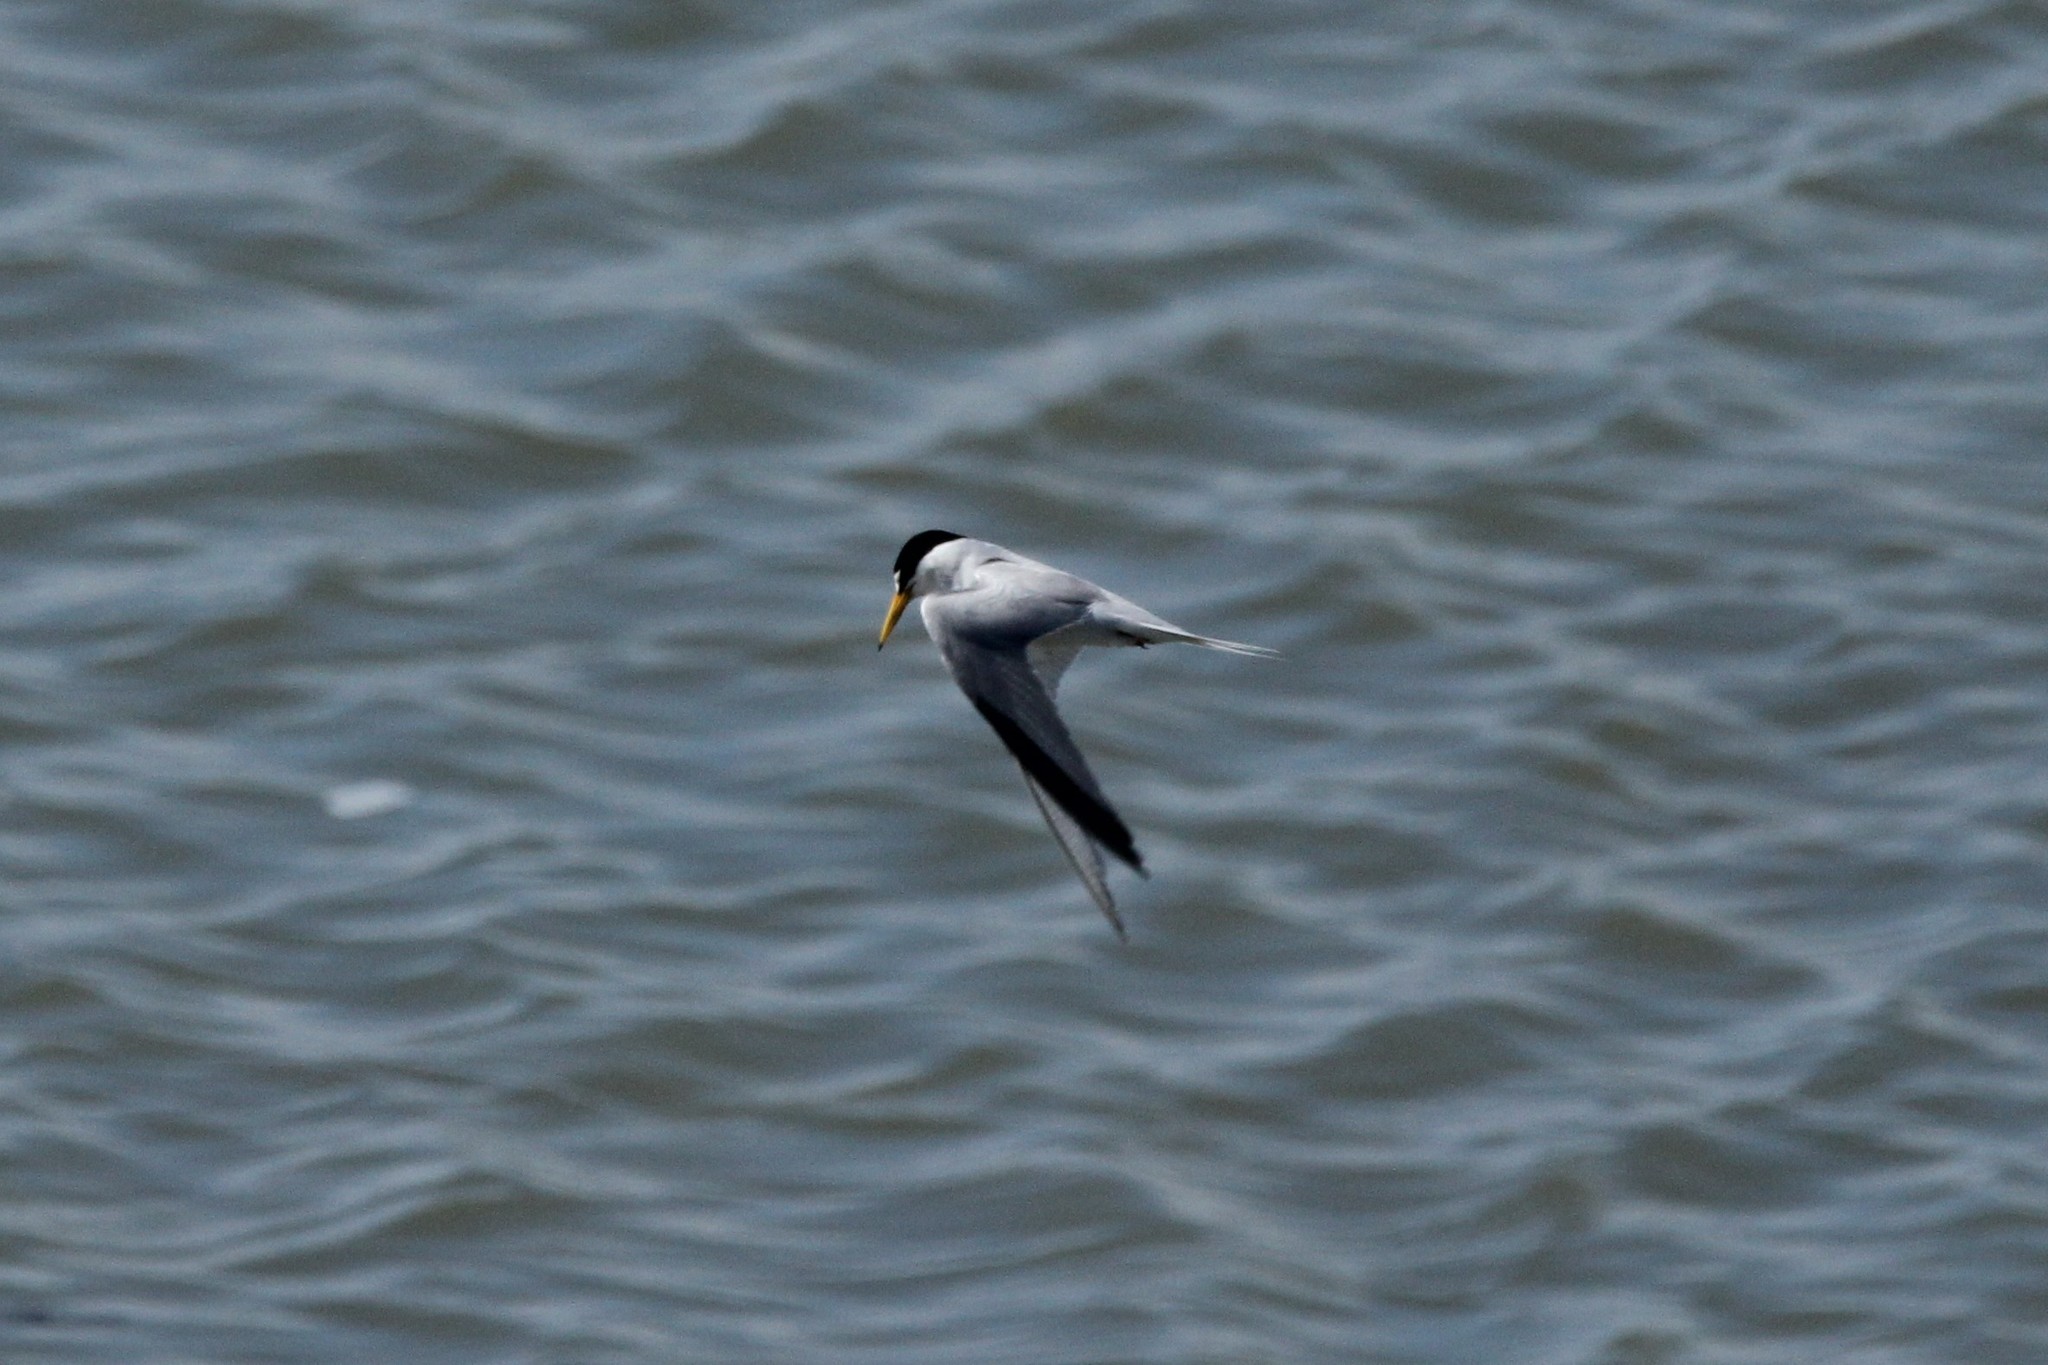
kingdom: Animalia
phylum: Chordata
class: Aves
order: Charadriiformes
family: Laridae
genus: Sternula
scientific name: Sternula antillarum
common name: Least tern
